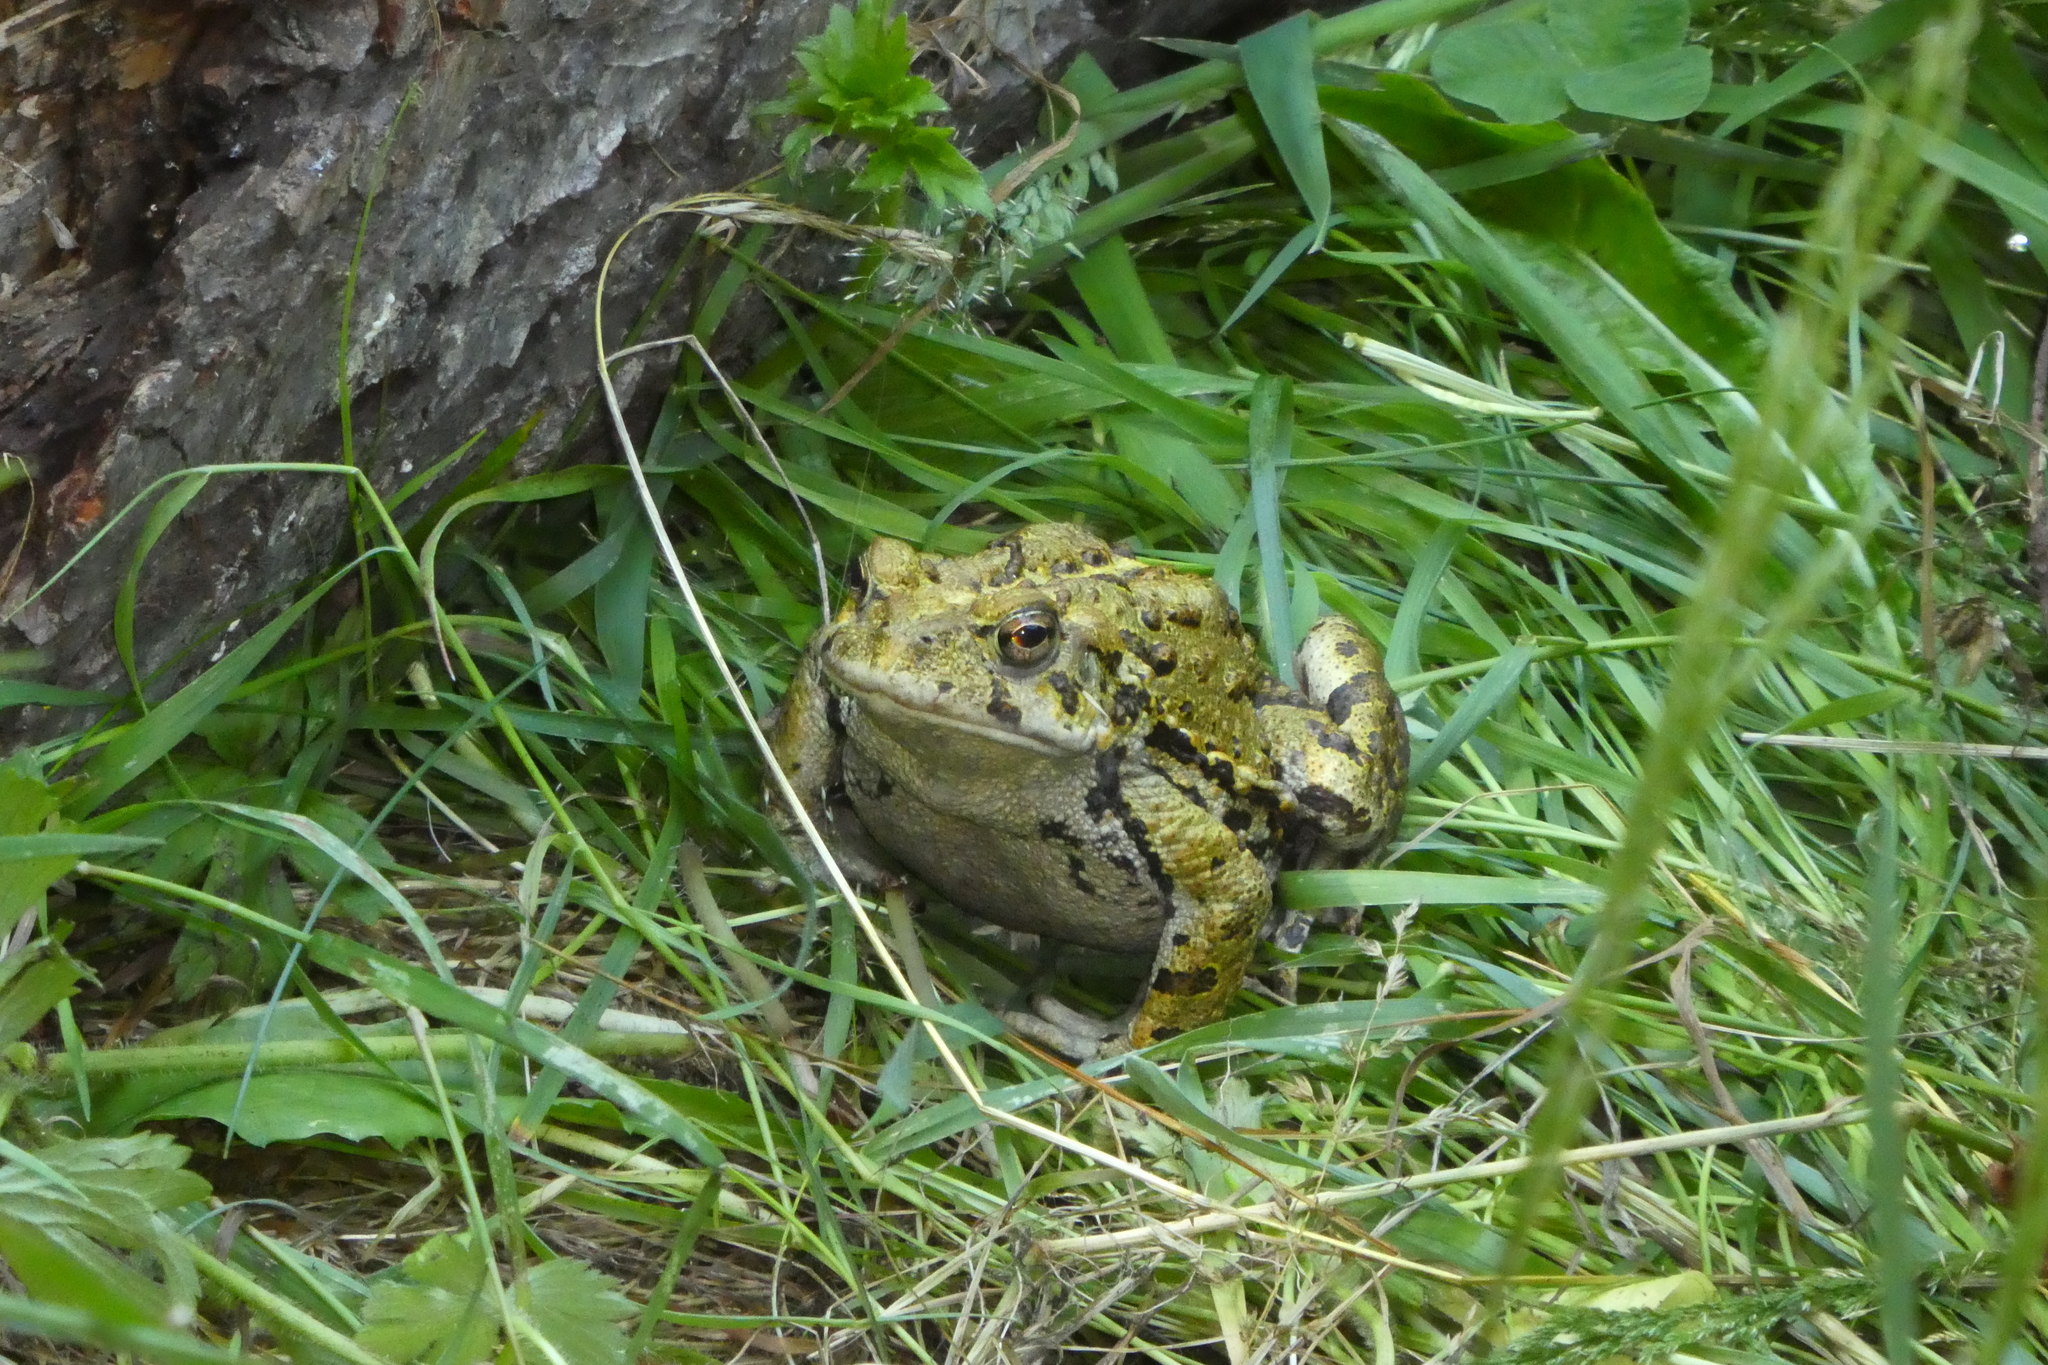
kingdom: Animalia
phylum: Chordata
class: Amphibia
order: Anura
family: Bufonidae
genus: Anaxyrus
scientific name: Anaxyrus boreas
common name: Western toad
